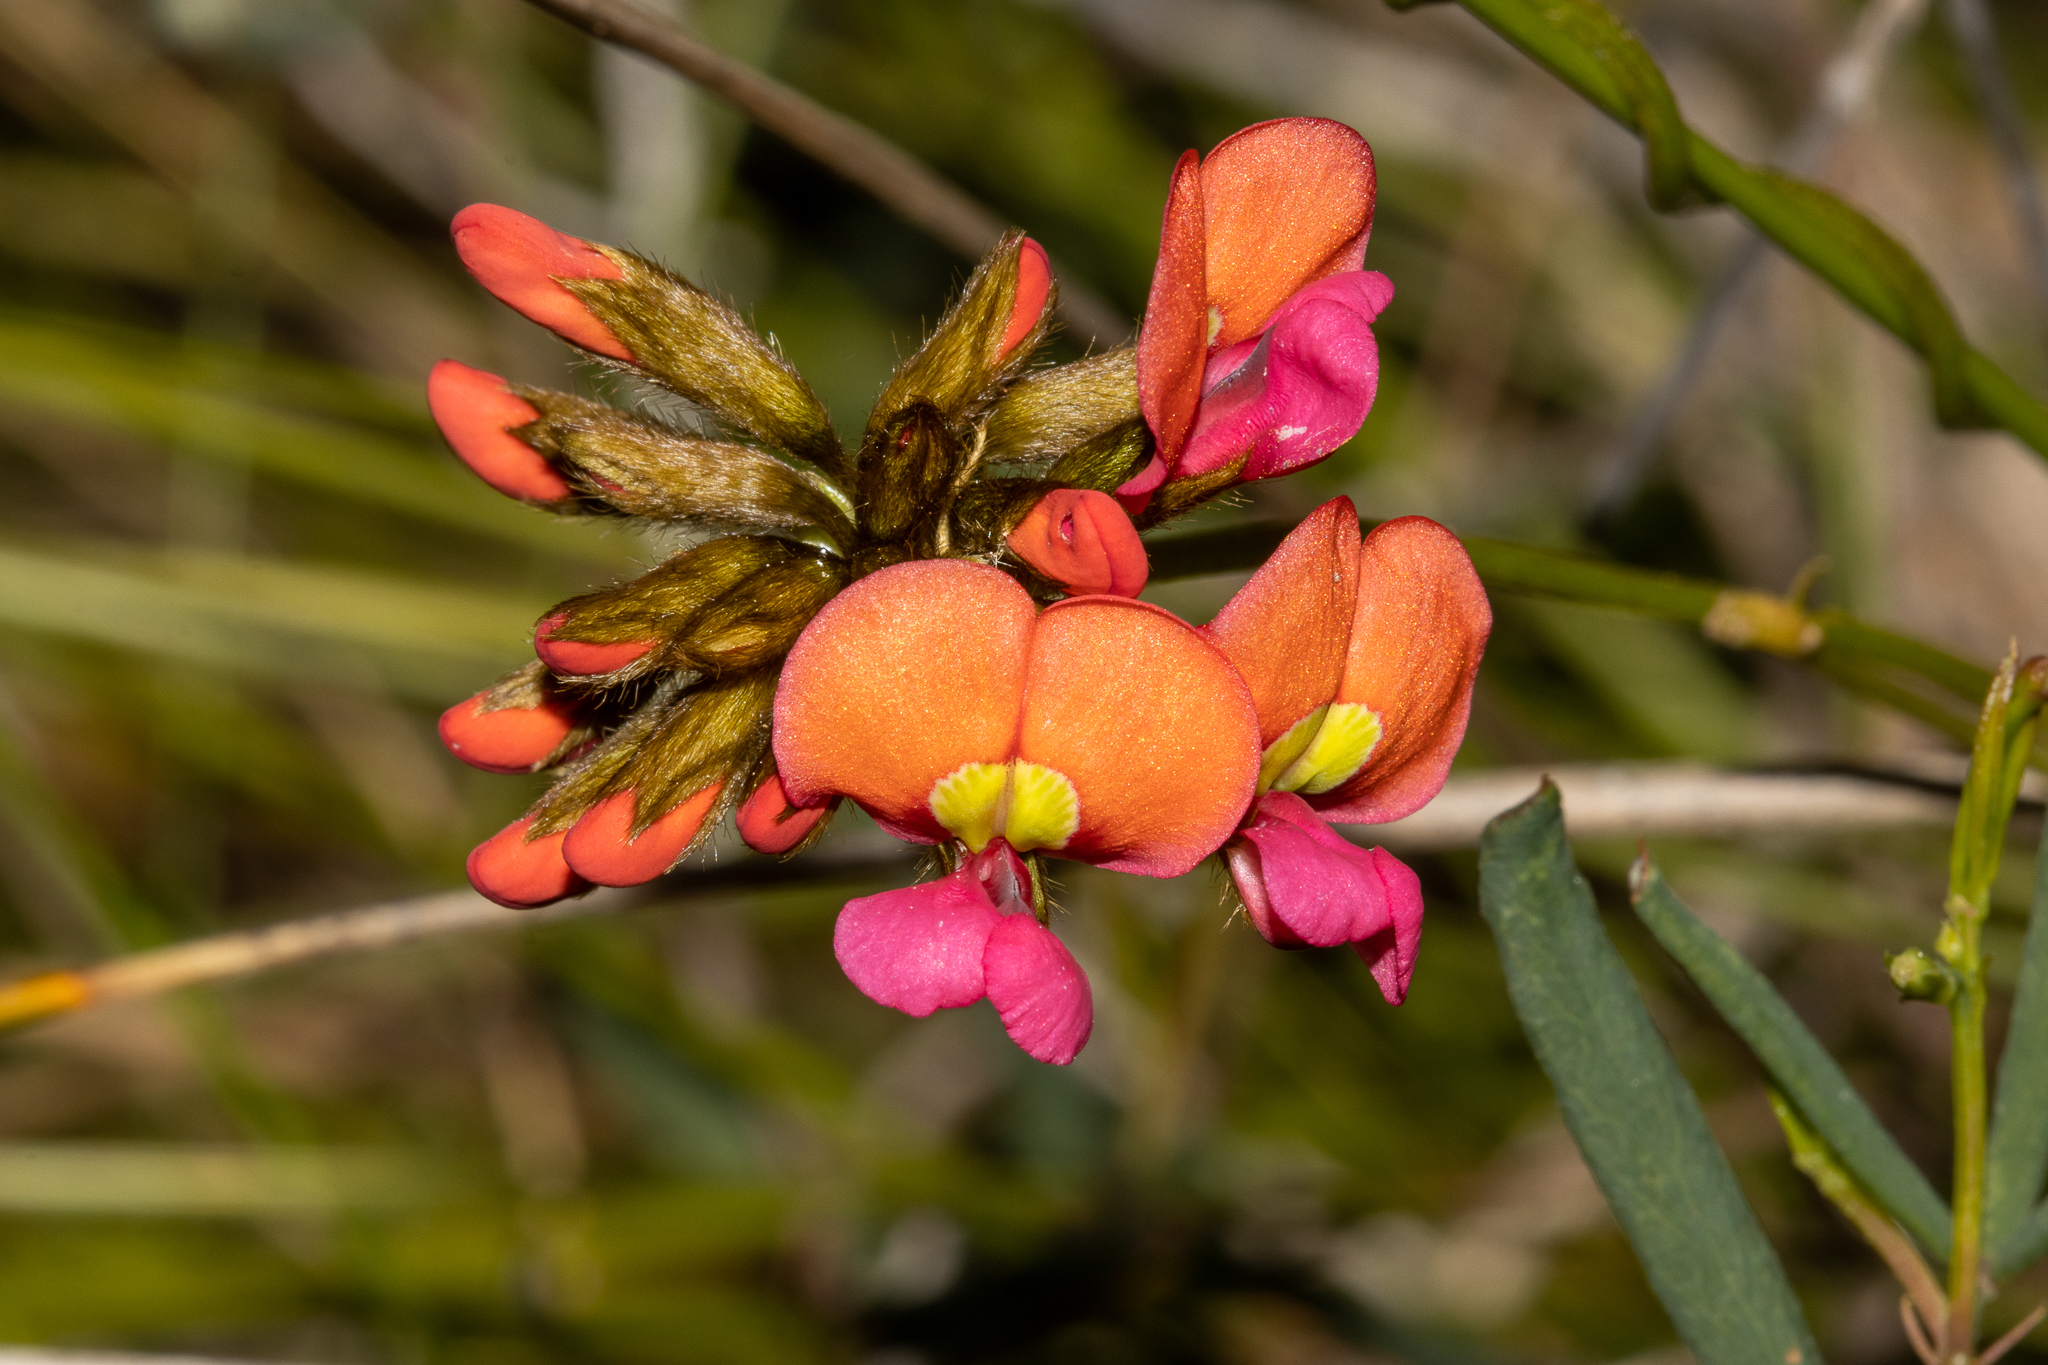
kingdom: Plantae
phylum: Tracheophyta
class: Magnoliopsida
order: Fabales
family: Fabaceae
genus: Kennedia
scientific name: Kennedia coccinea
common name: Coralvine
